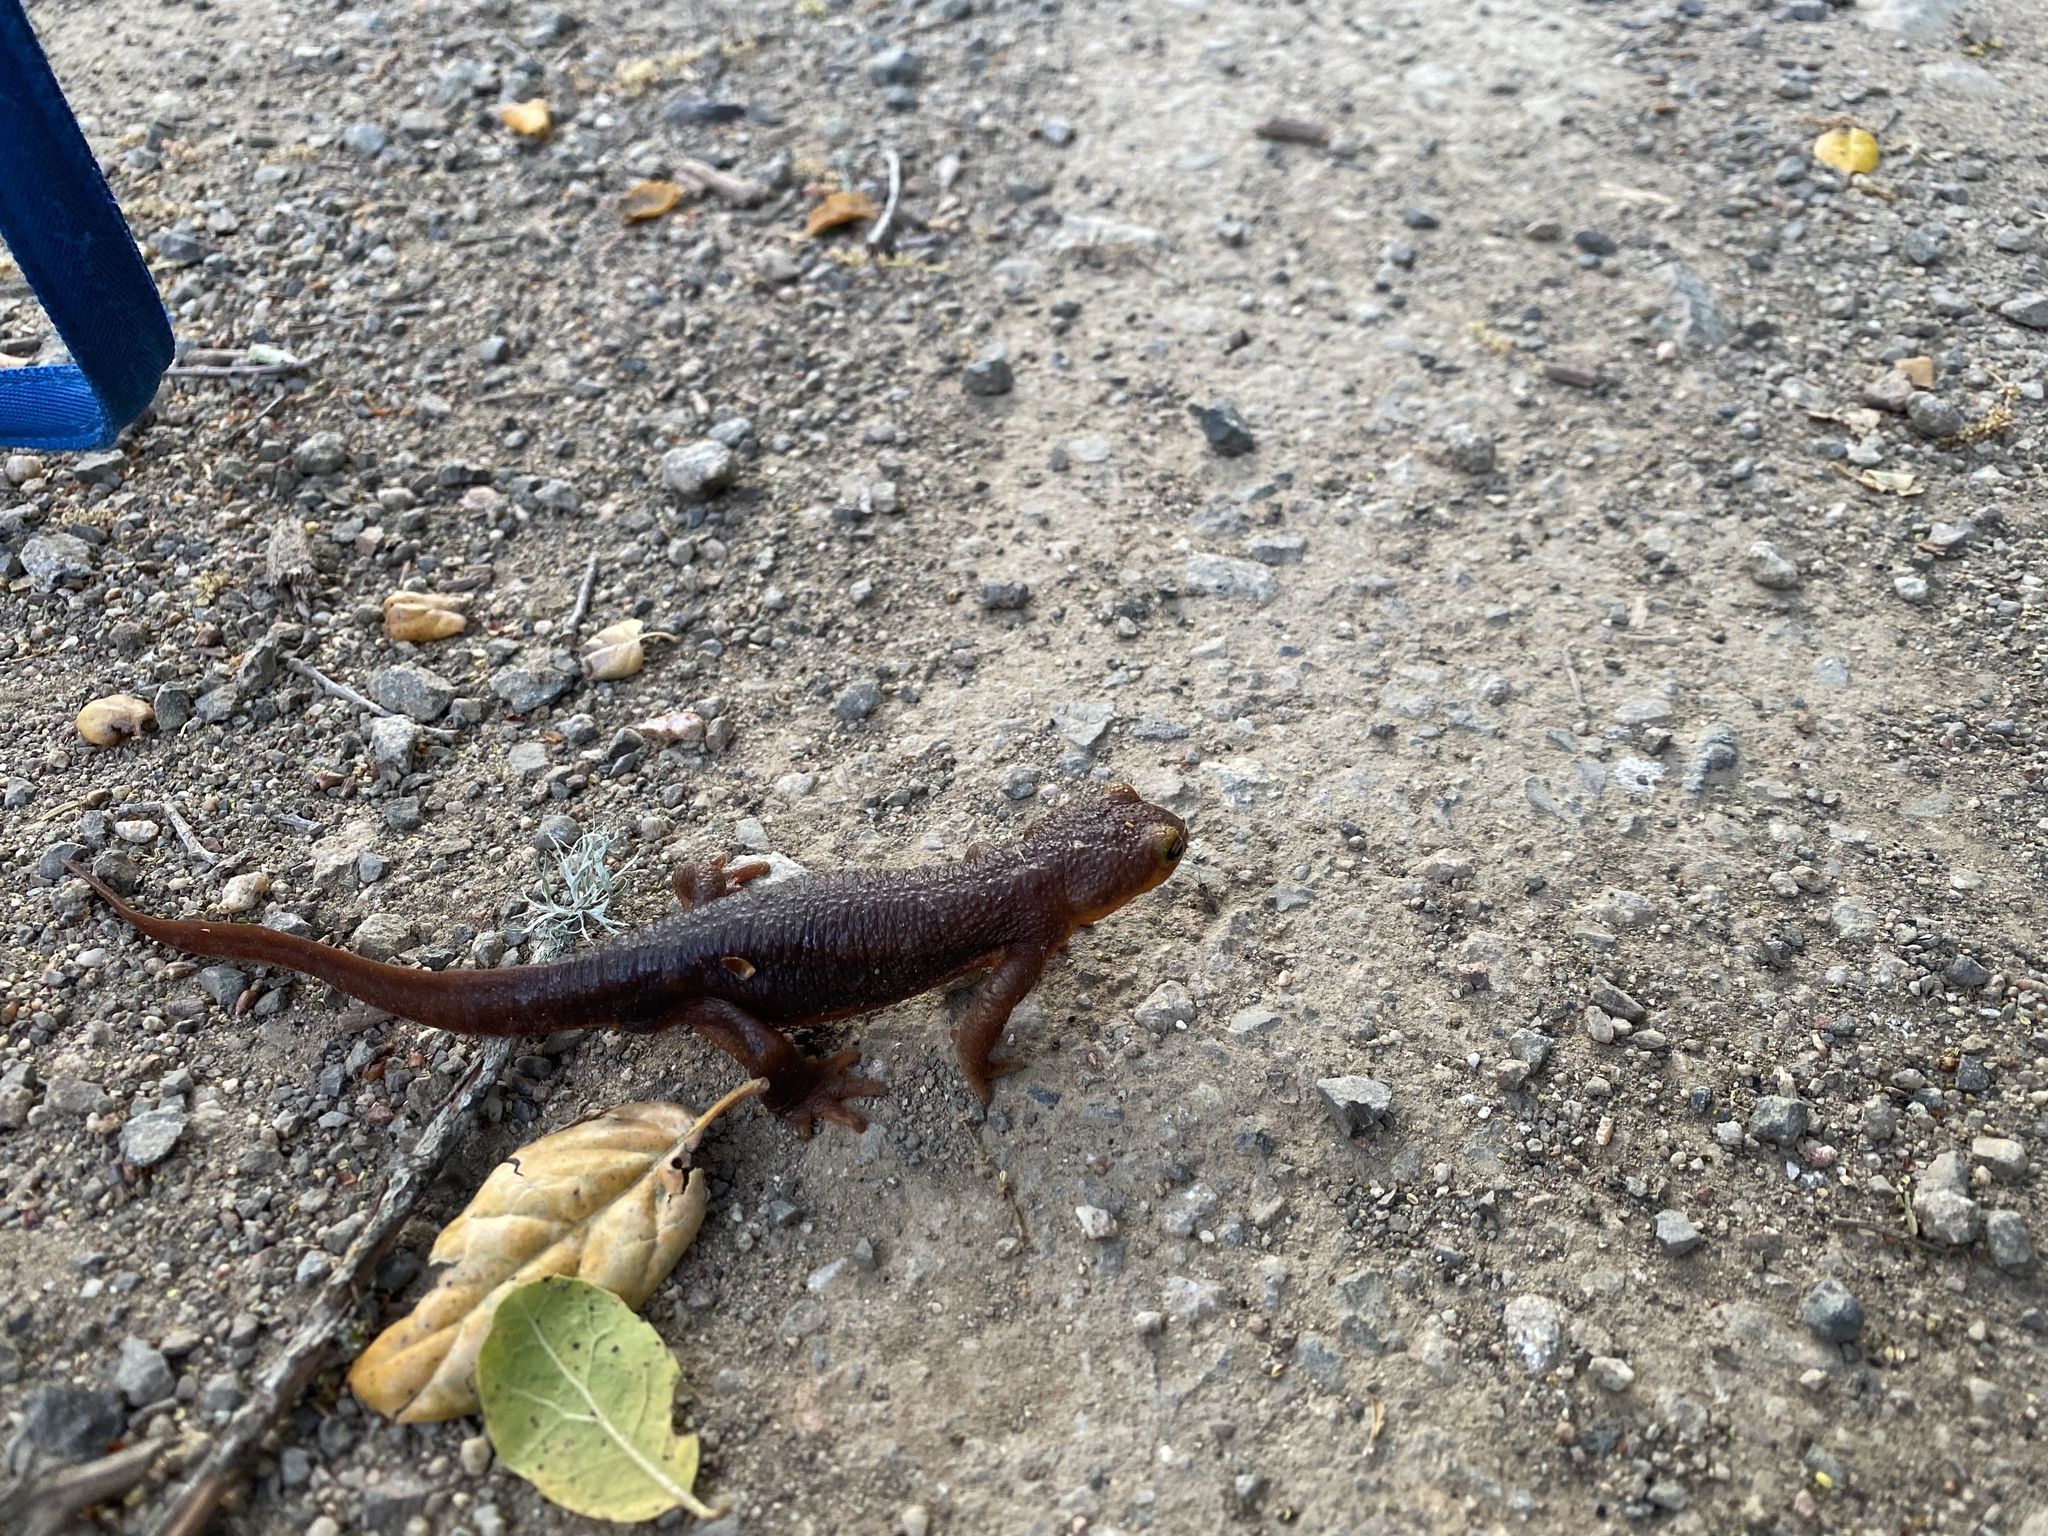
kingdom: Animalia
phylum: Chordata
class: Amphibia
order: Caudata
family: Salamandridae
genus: Taricha
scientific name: Taricha torosa
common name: California newt
